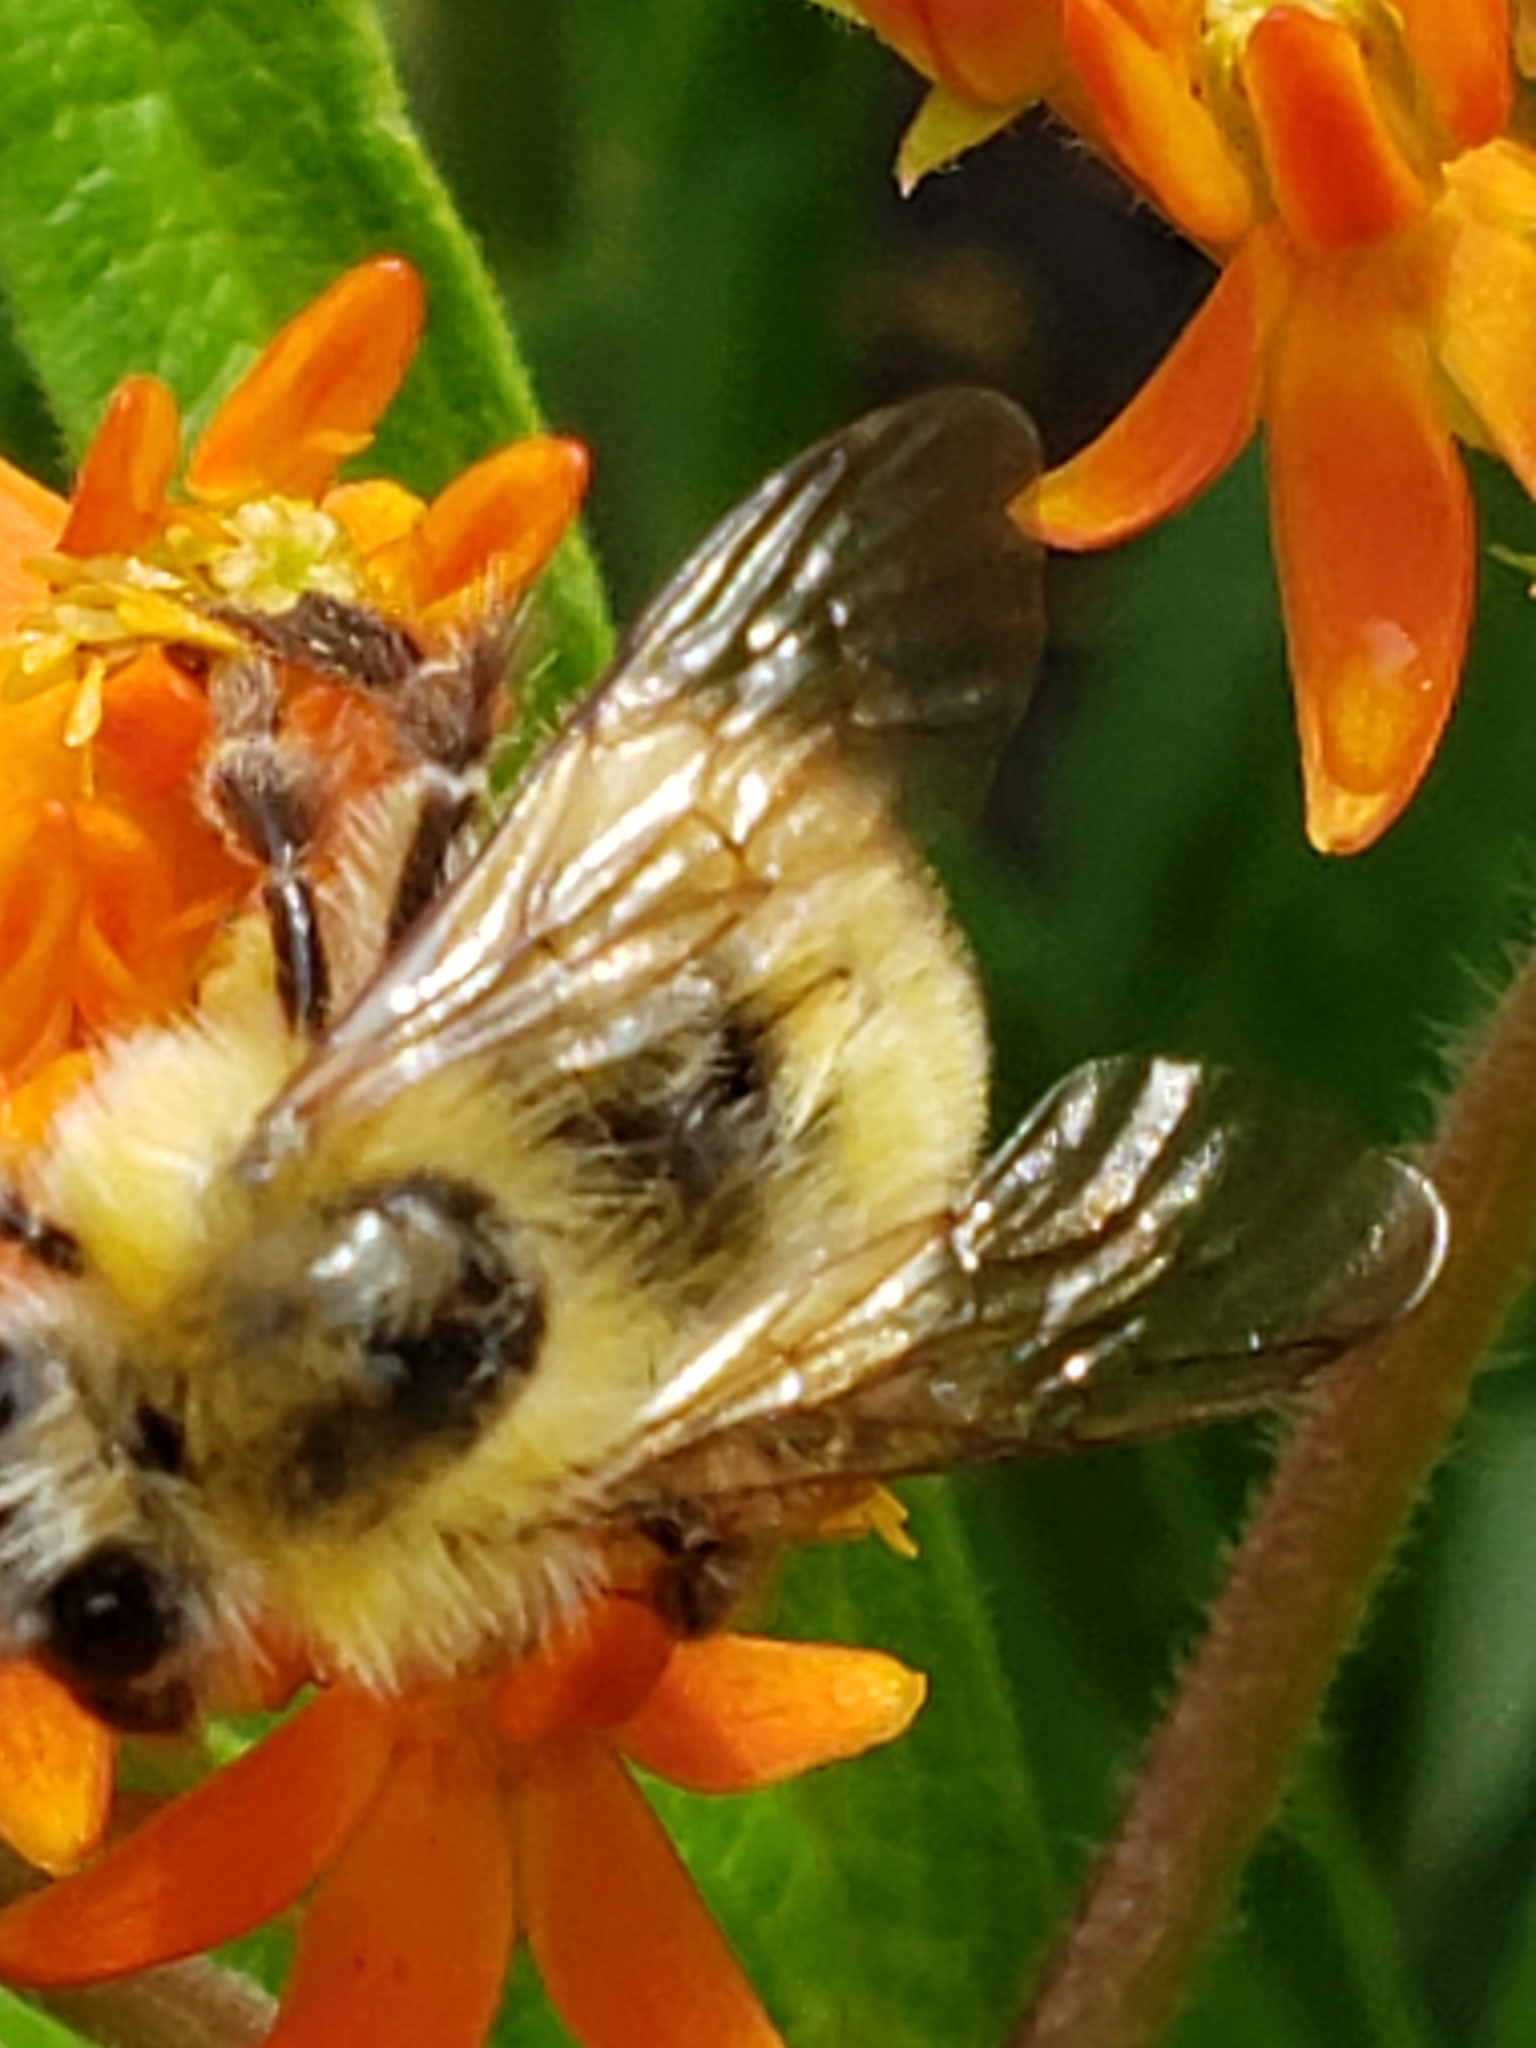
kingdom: Animalia
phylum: Arthropoda
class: Insecta
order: Hymenoptera
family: Apidae
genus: Bombus
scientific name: Bombus perplexus
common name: Confusing bumble bee
